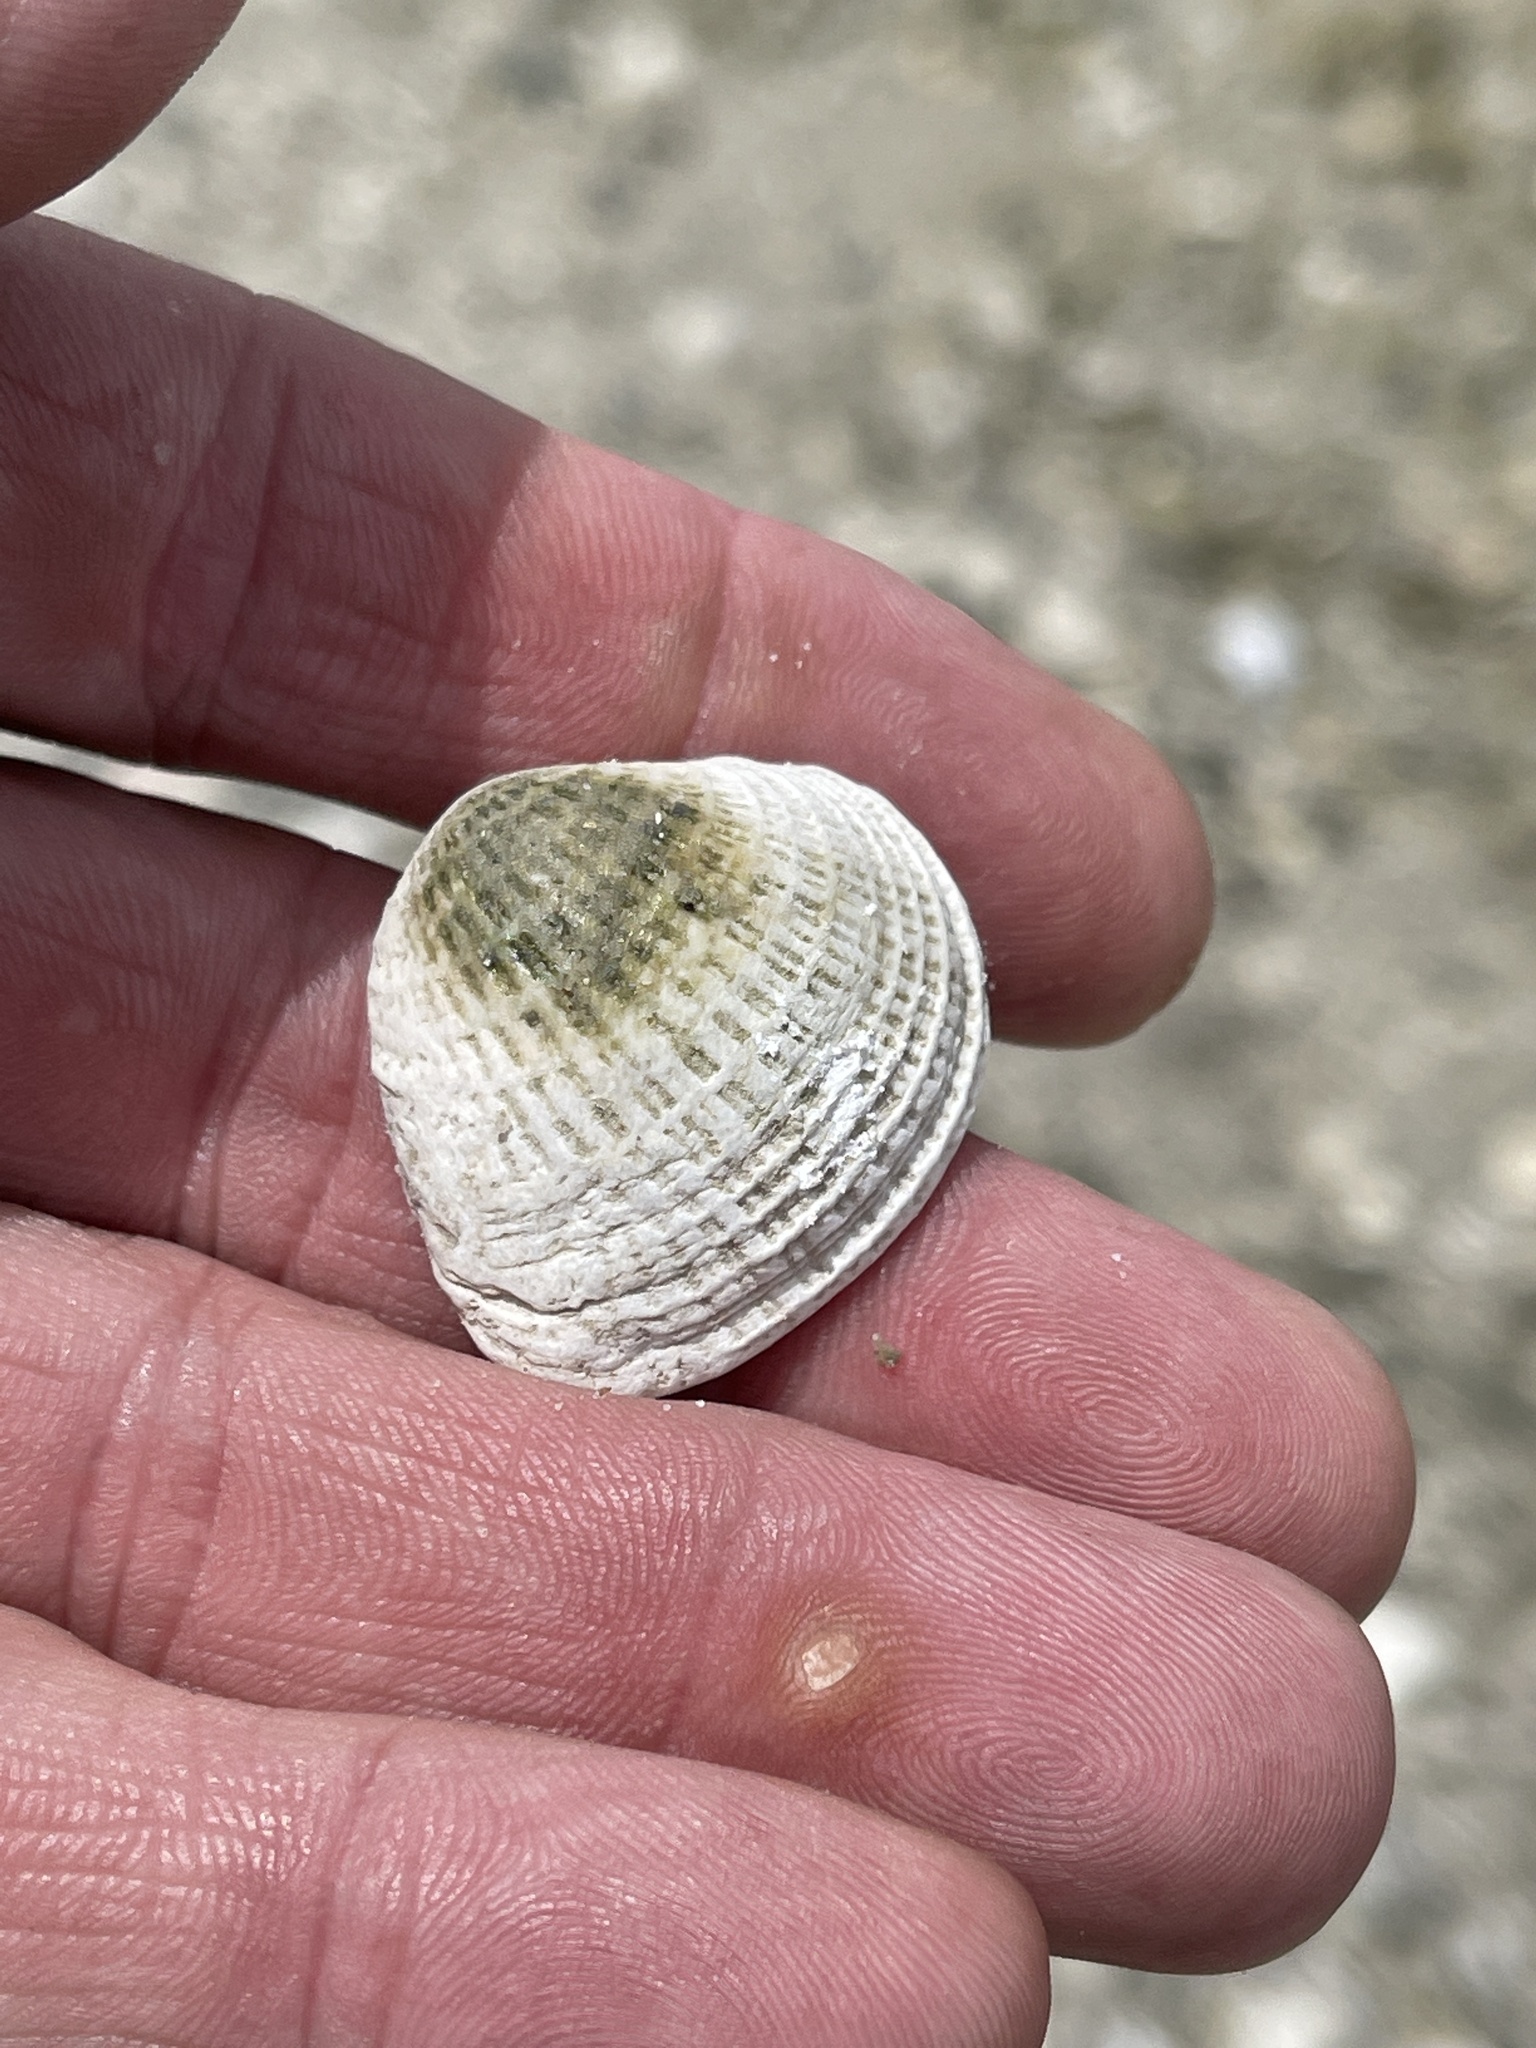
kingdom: Animalia
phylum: Mollusca
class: Bivalvia
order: Venerida
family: Veneridae
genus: Chione
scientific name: Chione elevata
